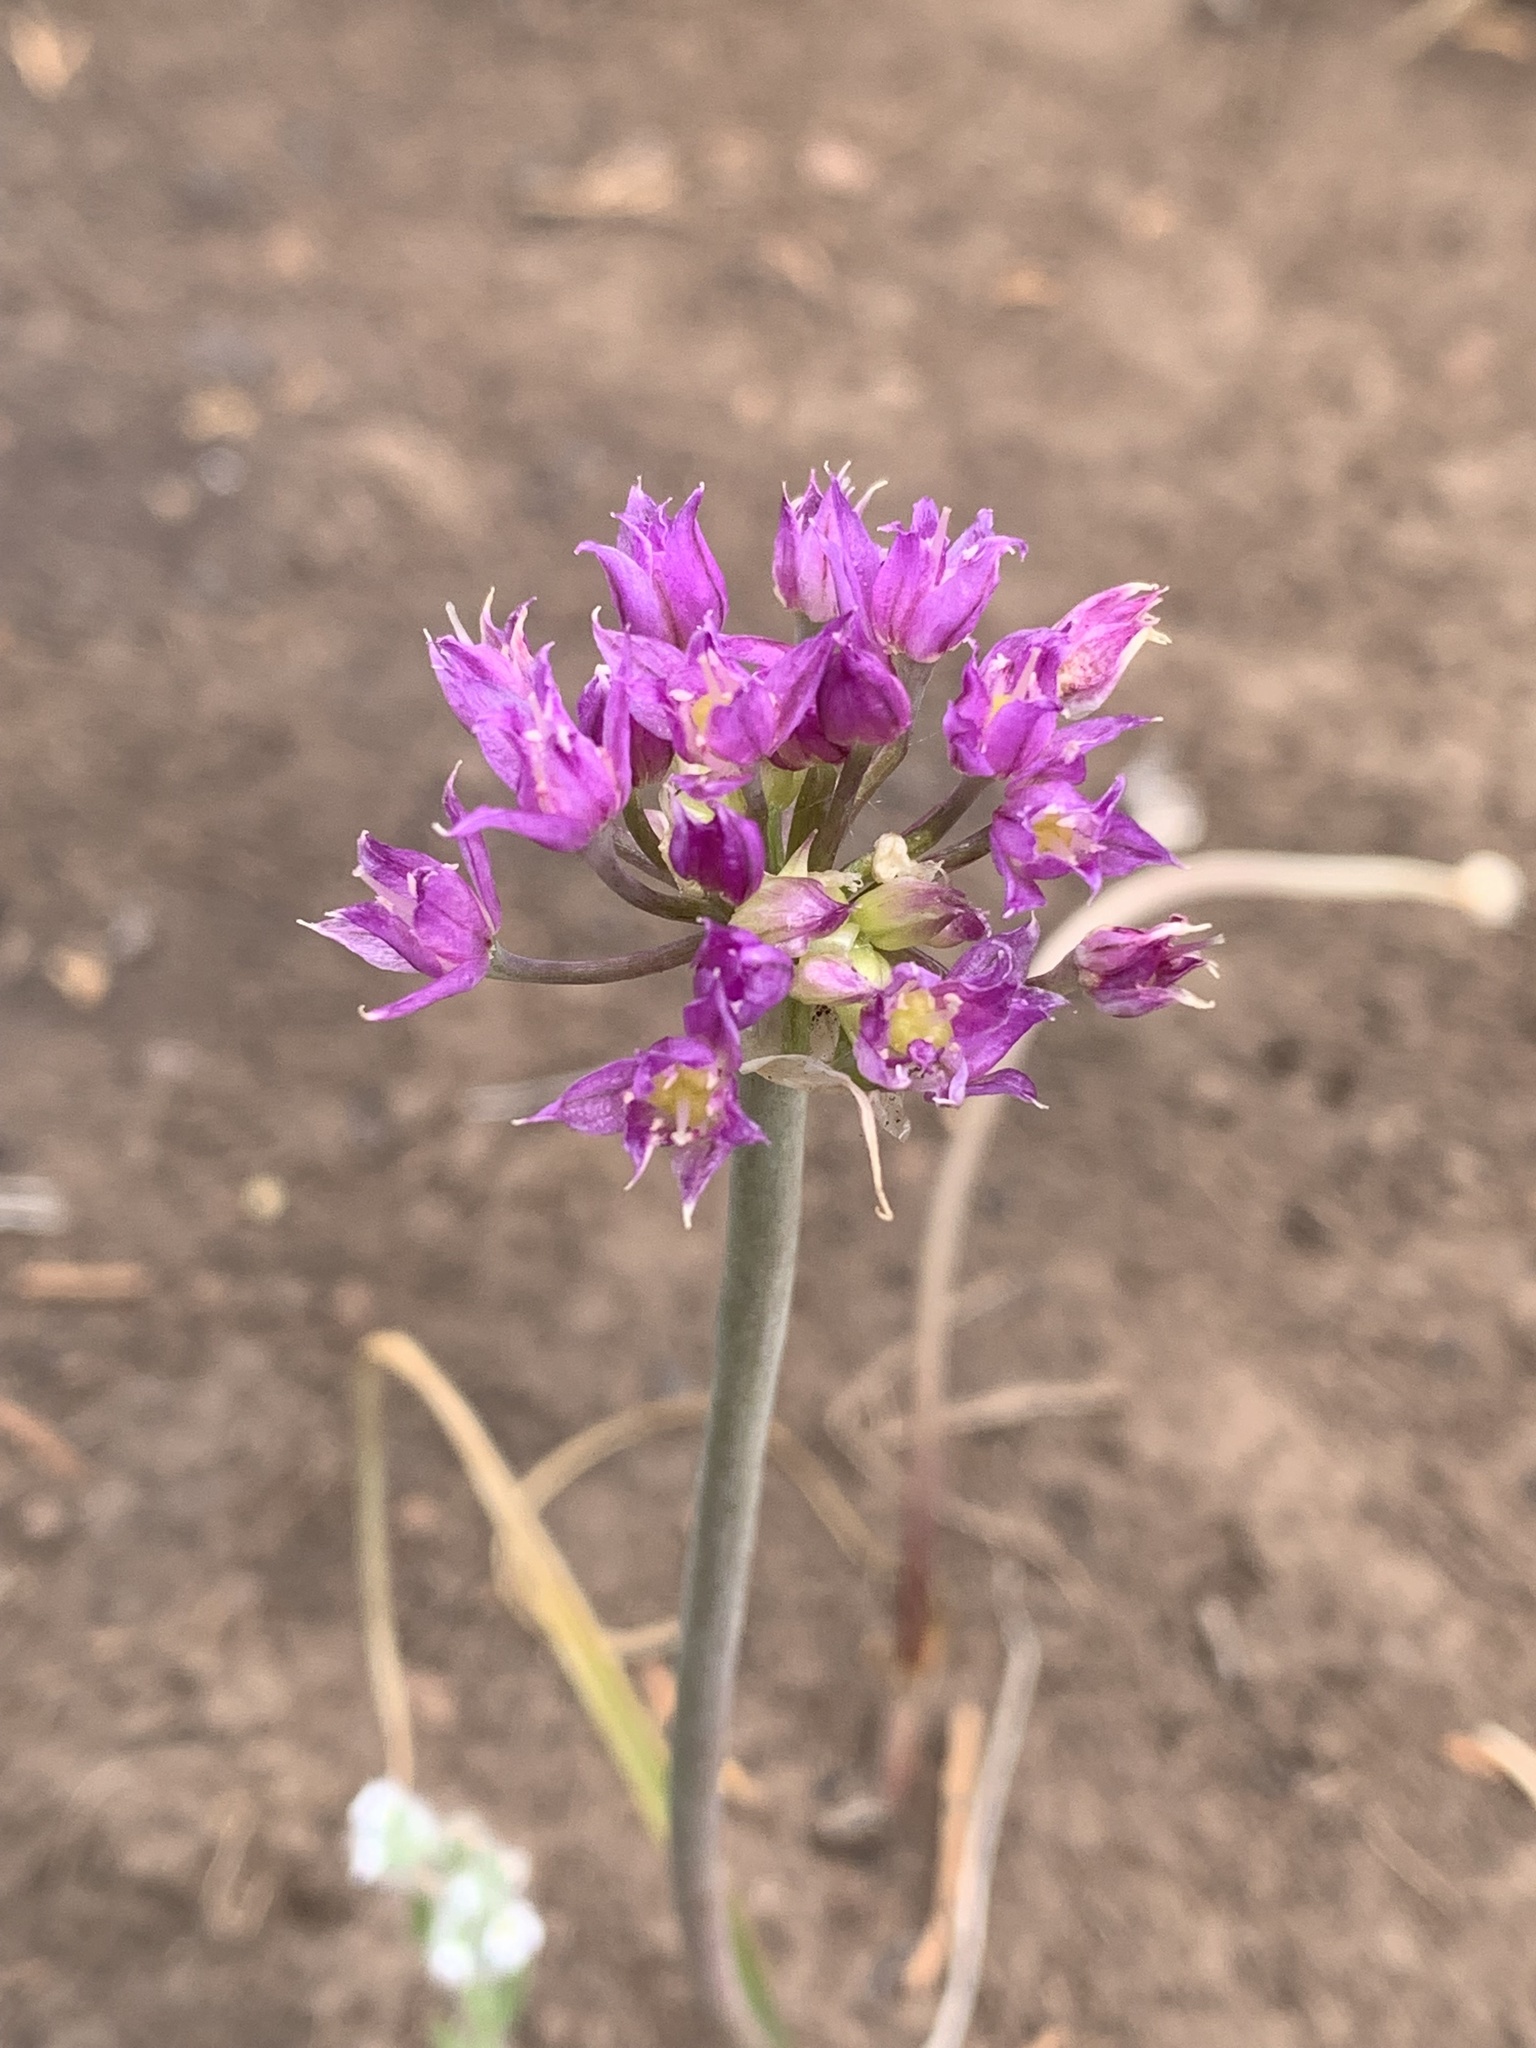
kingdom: Plantae
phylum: Tracheophyta
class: Liliopsida
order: Asparagales
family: Amaryllidaceae
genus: Allium
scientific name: Allium acuminatum
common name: Hooker's onion
